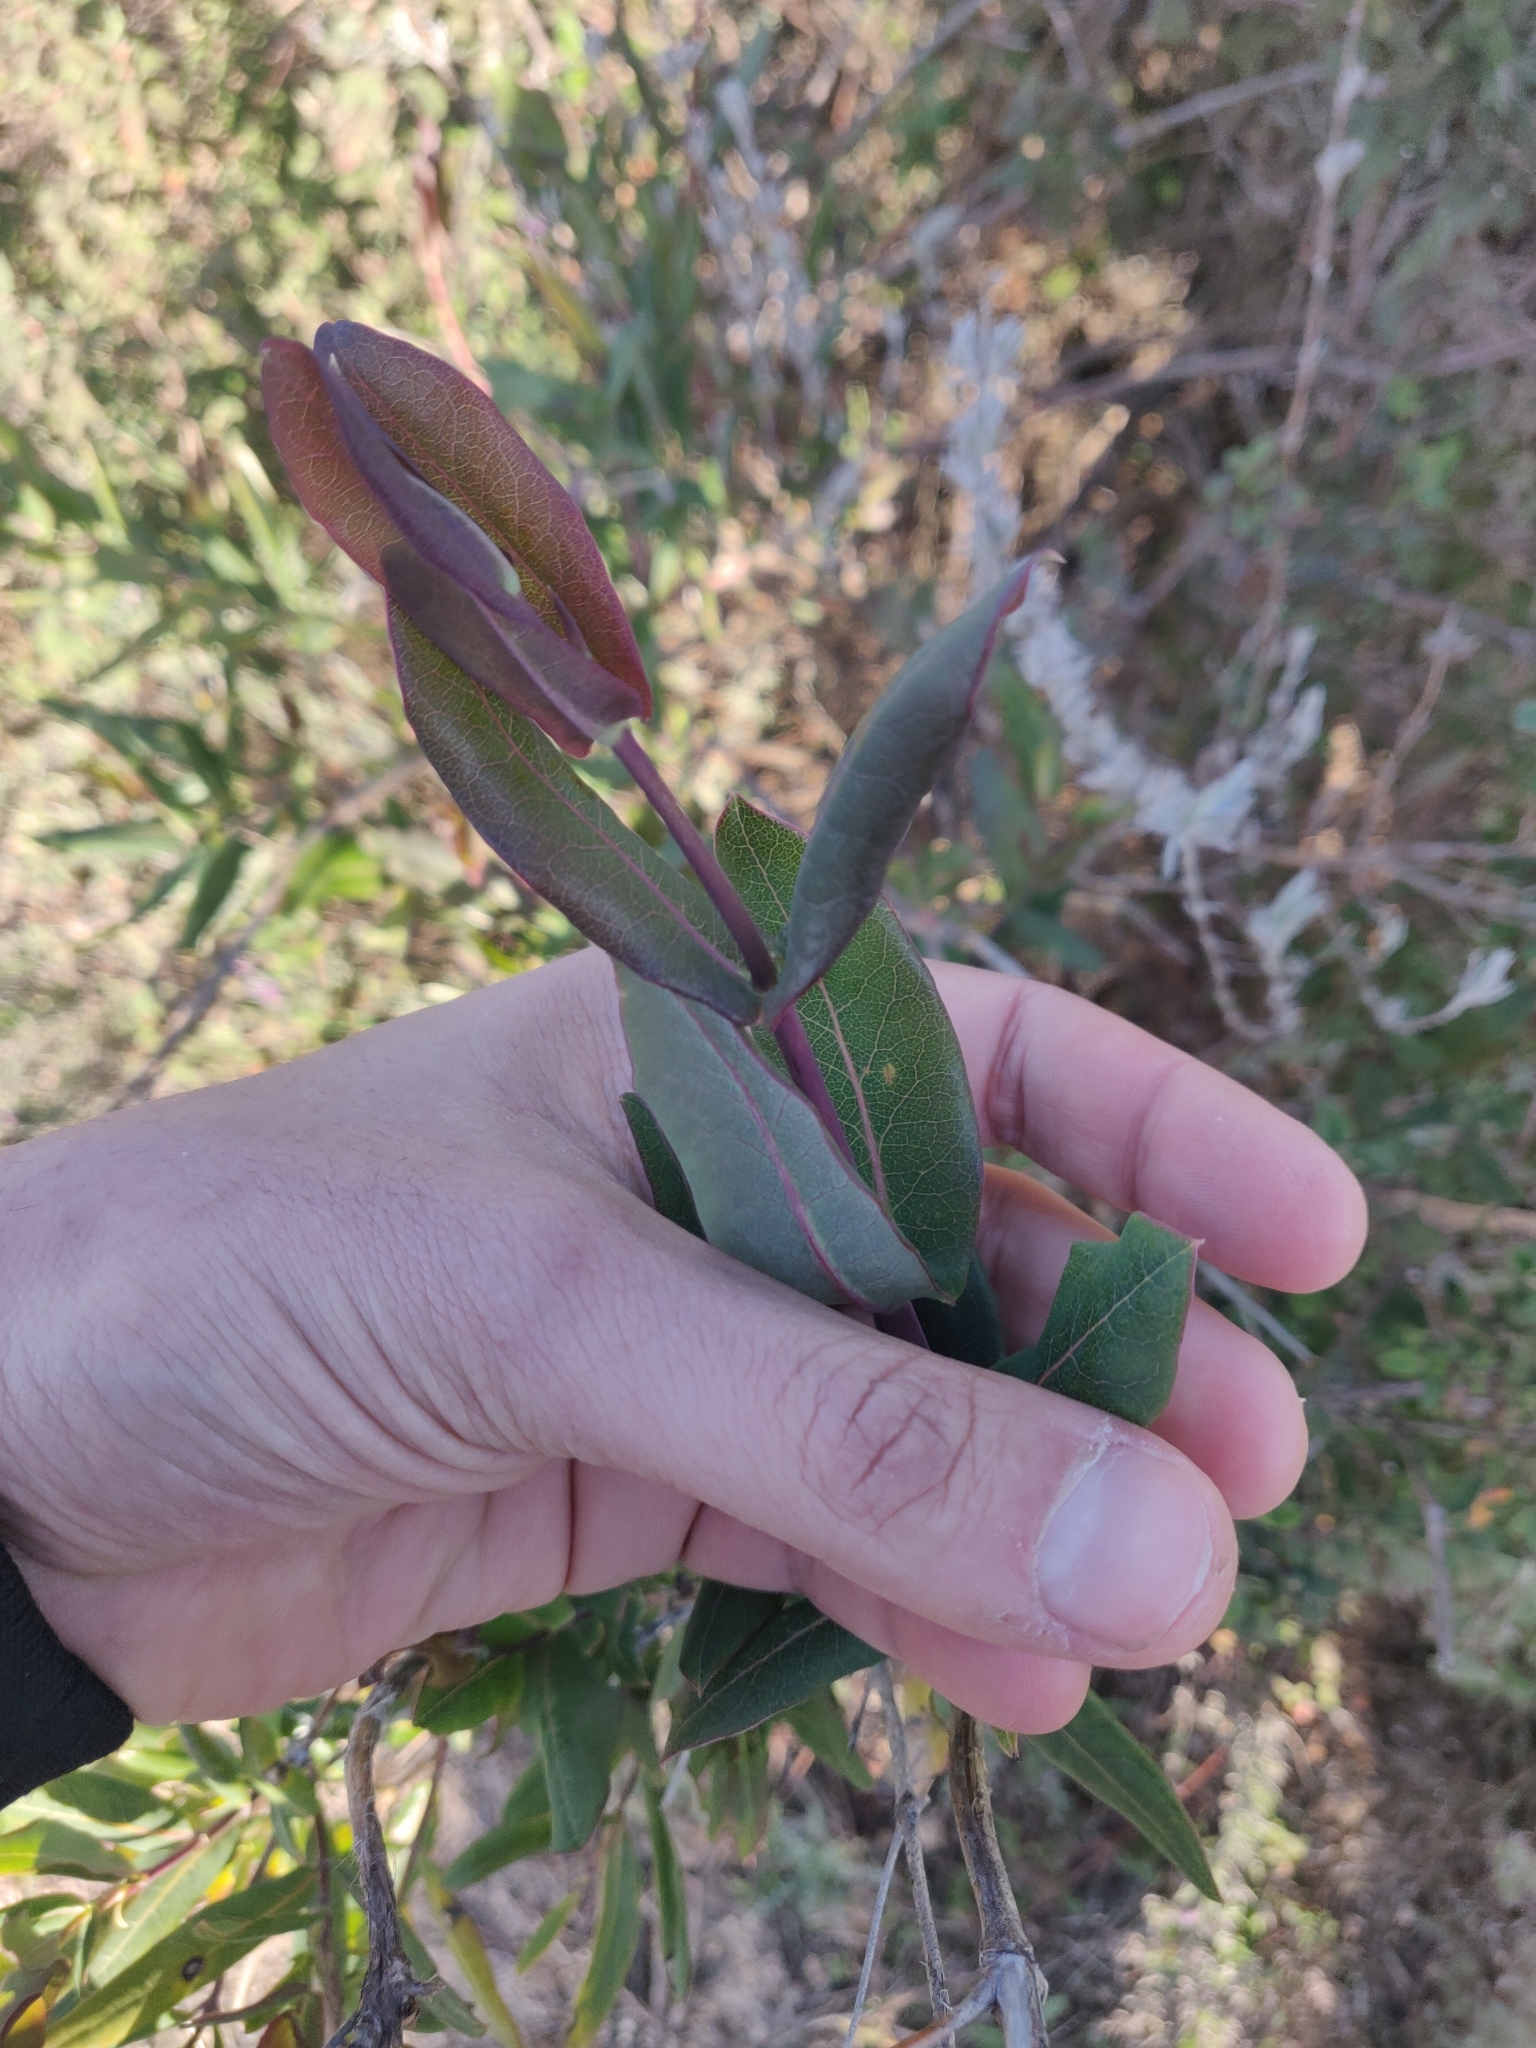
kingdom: Plantae
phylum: Tracheophyta
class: Magnoliopsida
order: Dipsacales
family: Caprifoliaceae
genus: Lonicera
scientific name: Lonicera implexa
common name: Minorca honeysuckle
